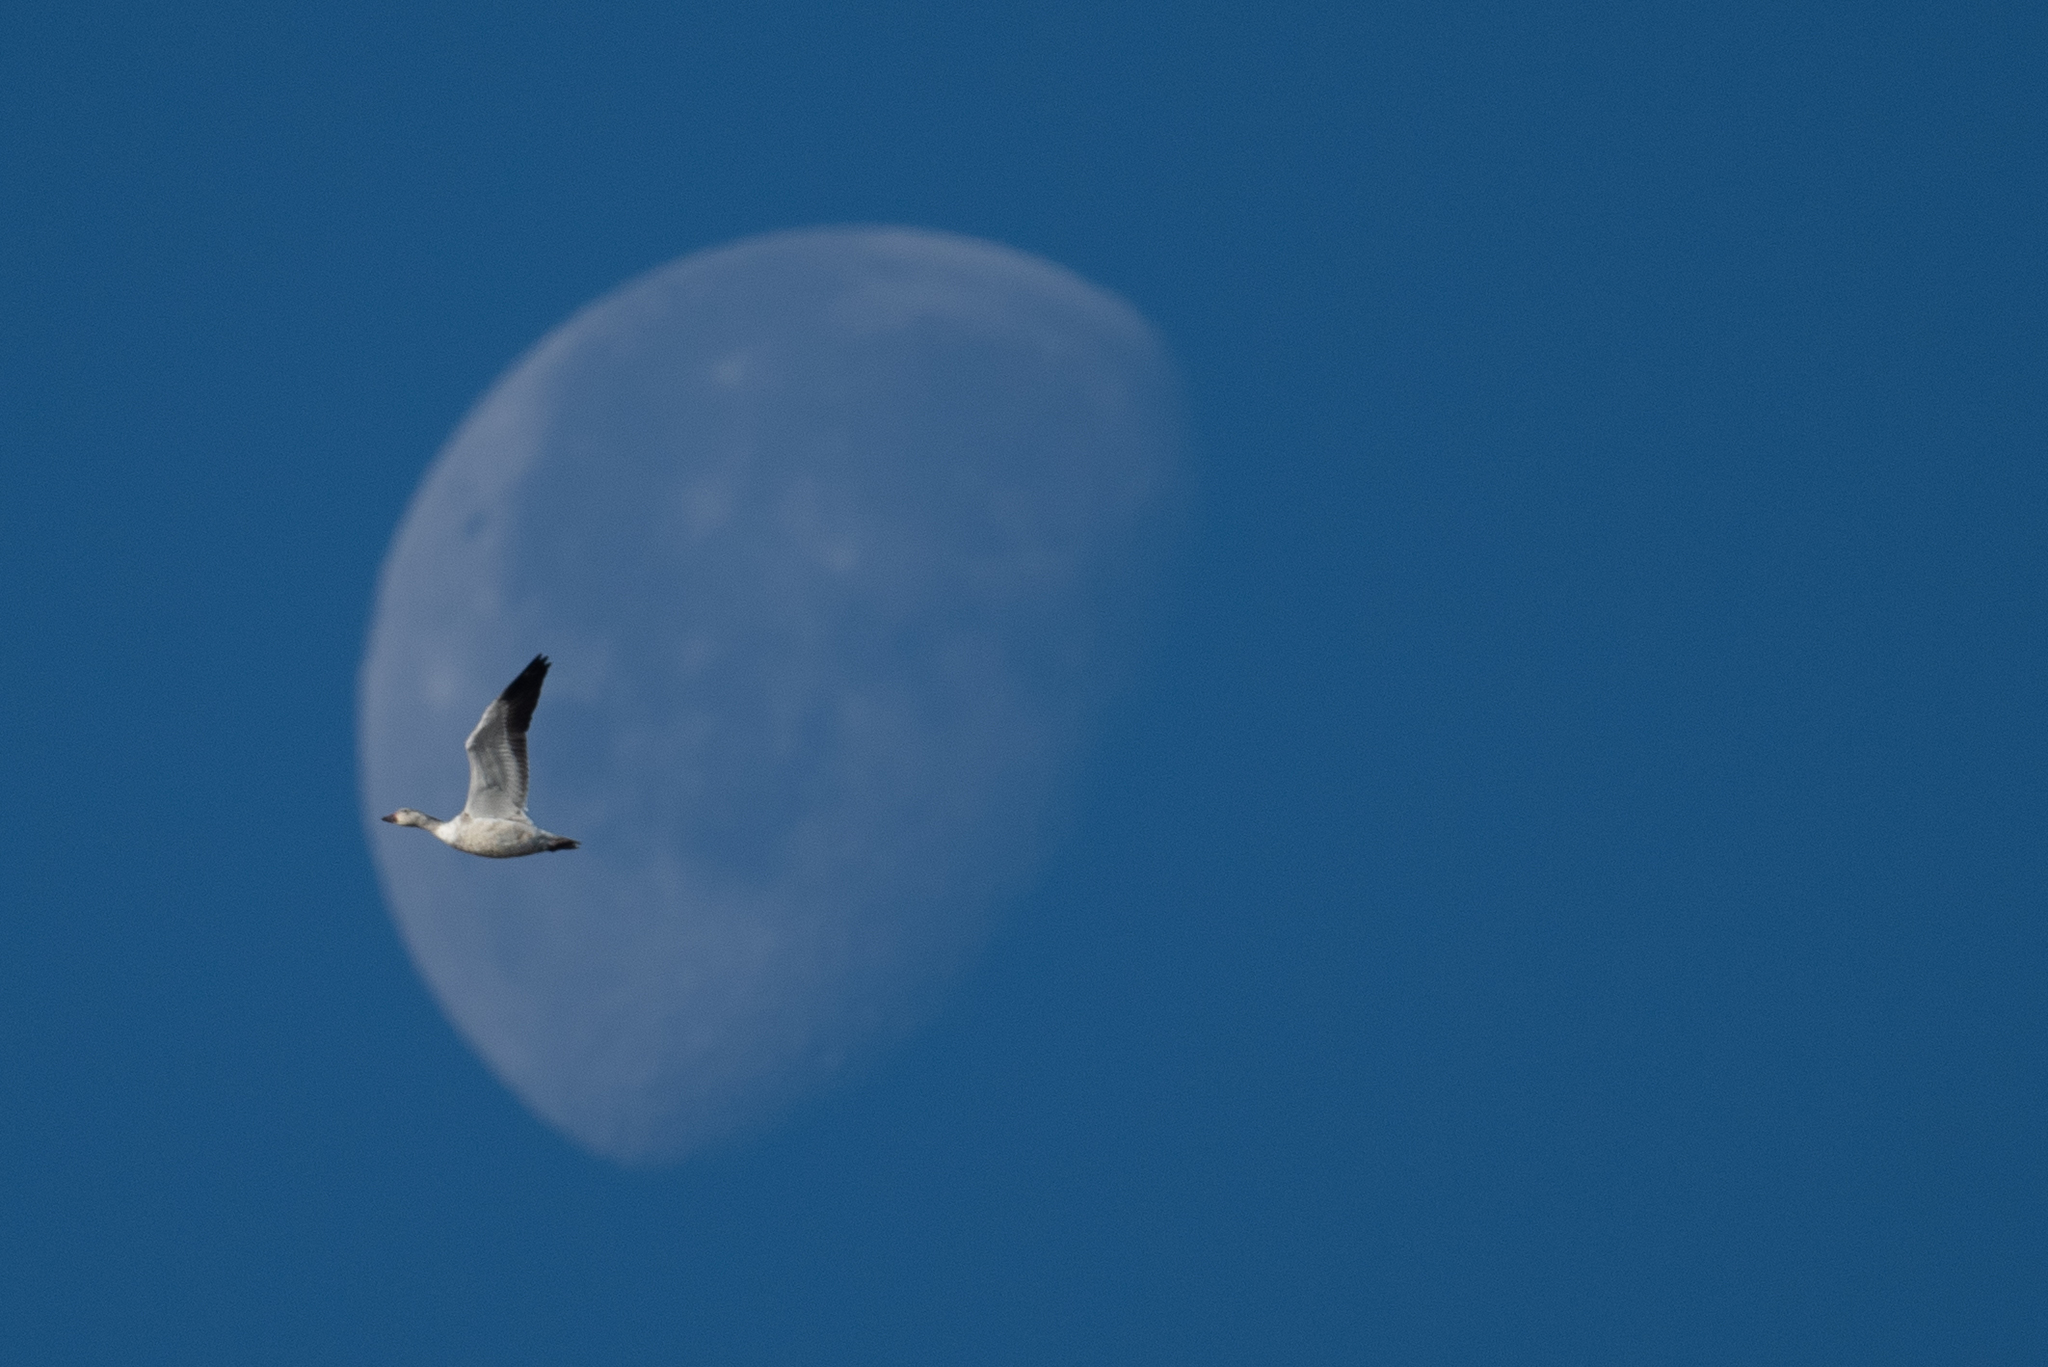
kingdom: Animalia
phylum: Chordata
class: Aves
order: Anseriformes
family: Anatidae
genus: Anser
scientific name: Anser caerulescens
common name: Snow goose
